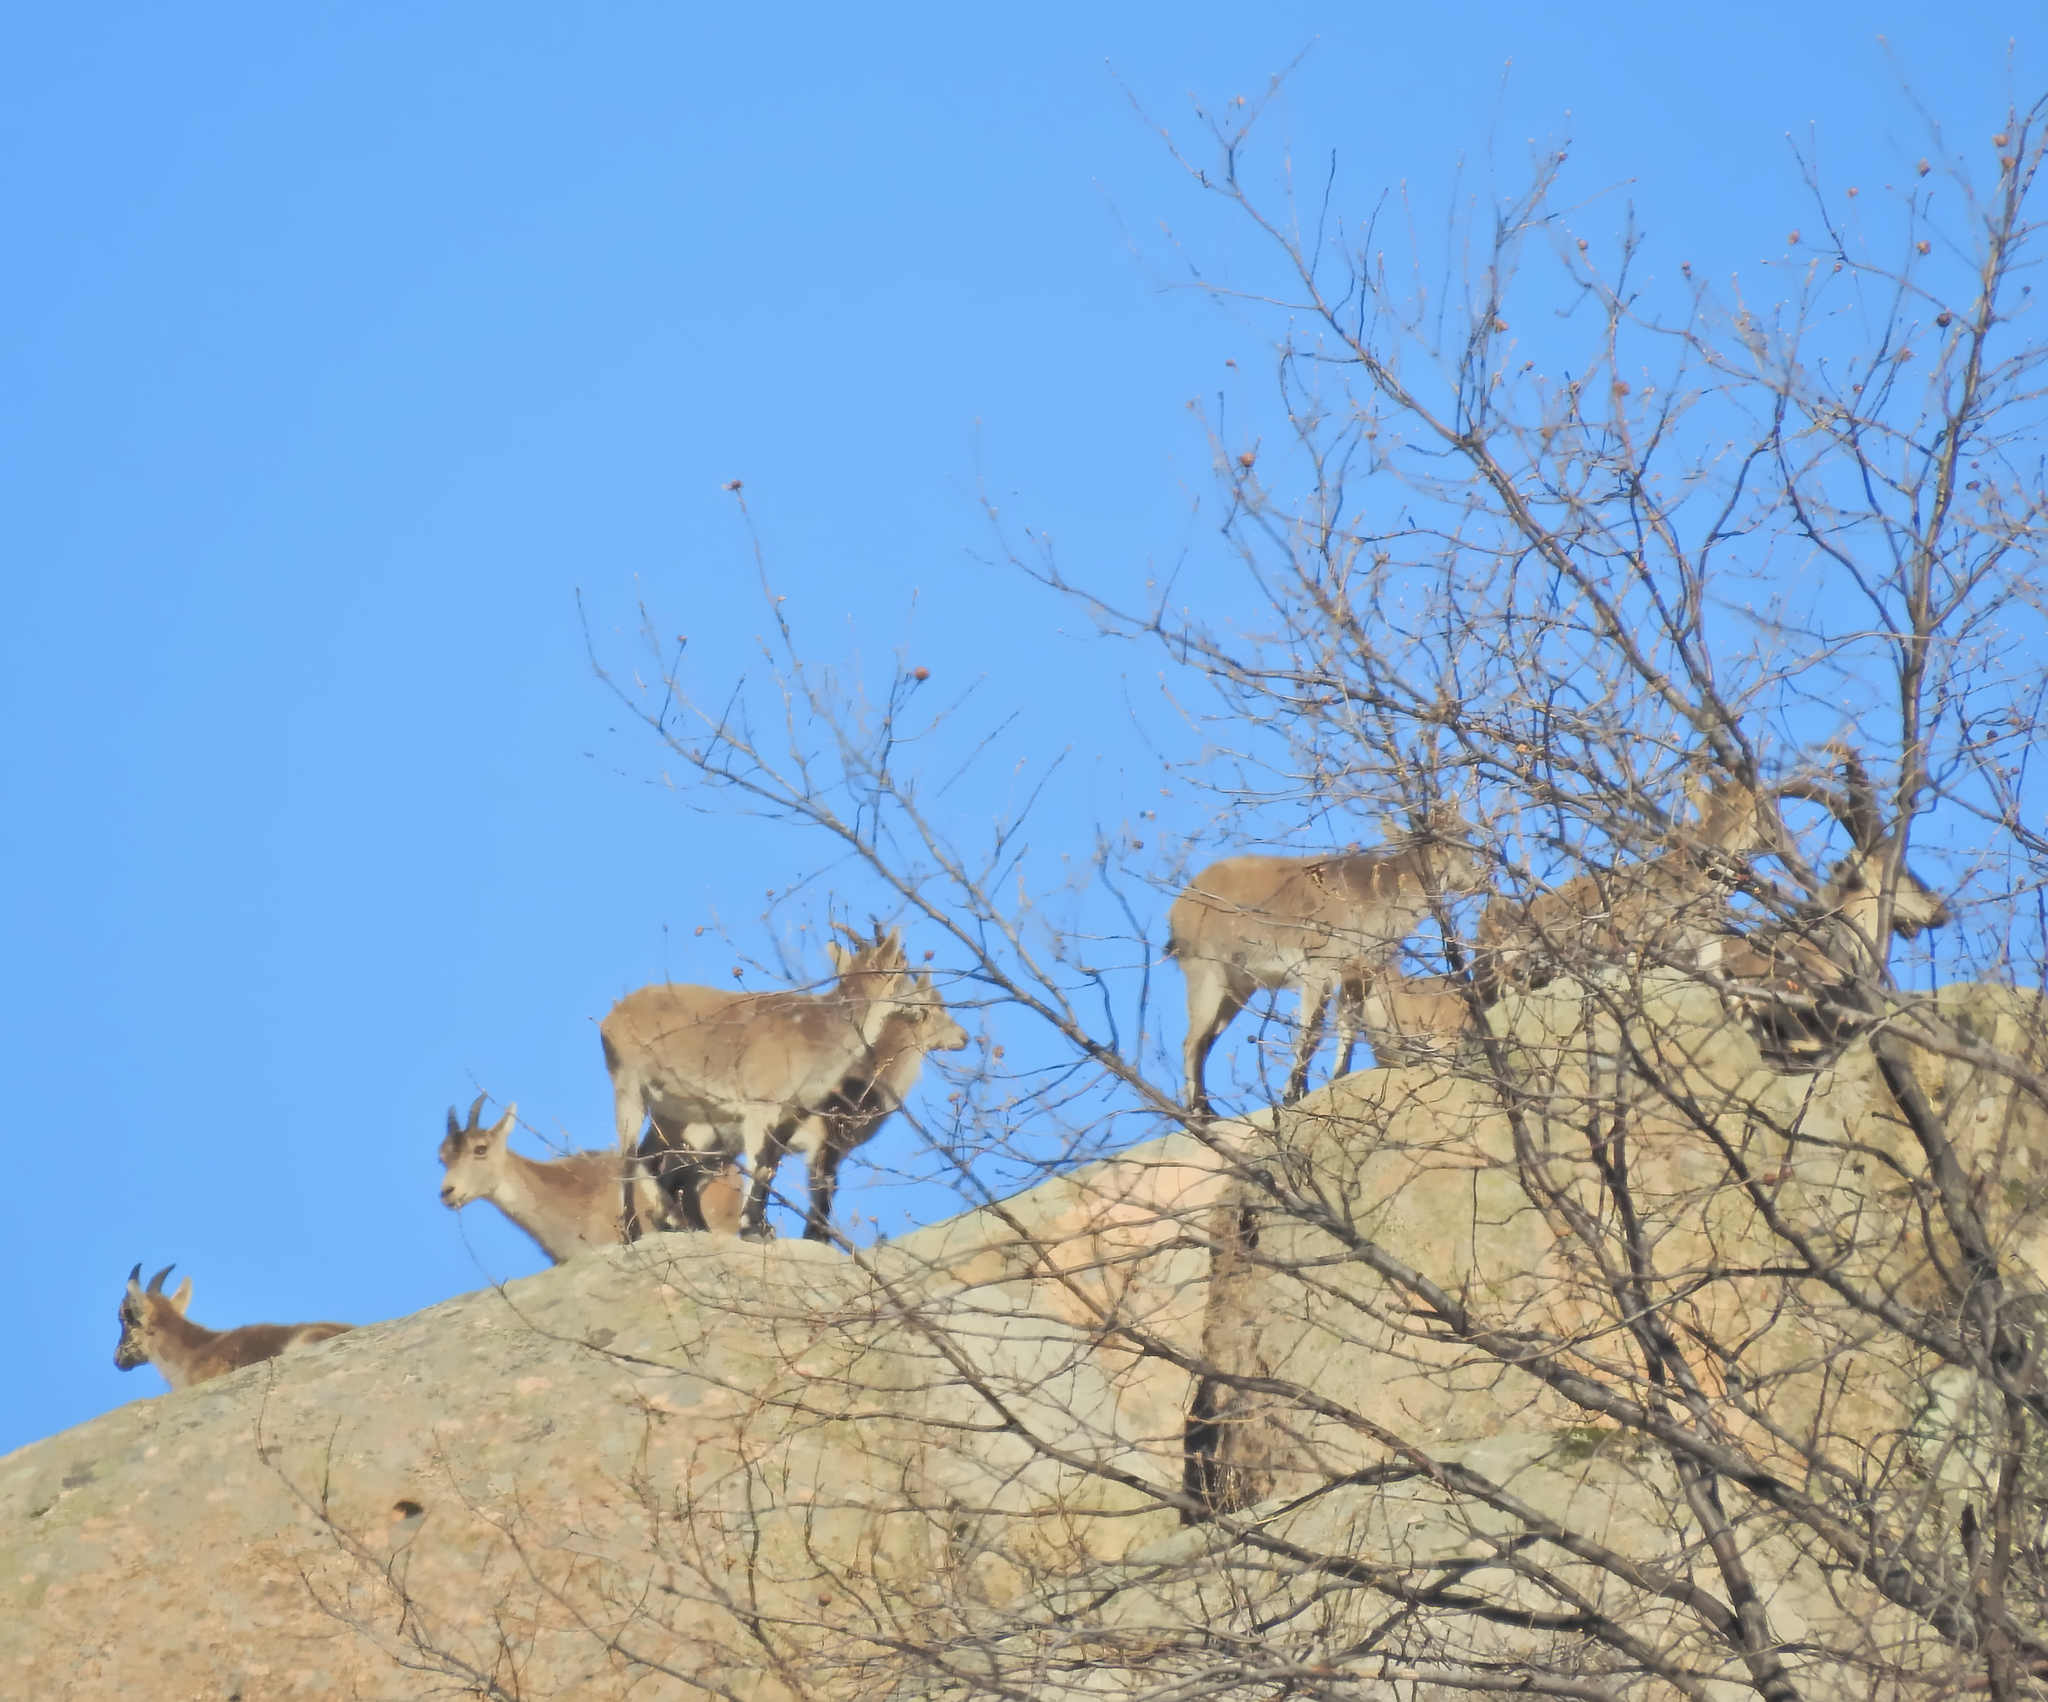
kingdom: Animalia
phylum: Chordata
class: Mammalia
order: Artiodactyla
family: Bovidae
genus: Capra
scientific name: Capra pyrenaica
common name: Spanish ibex
